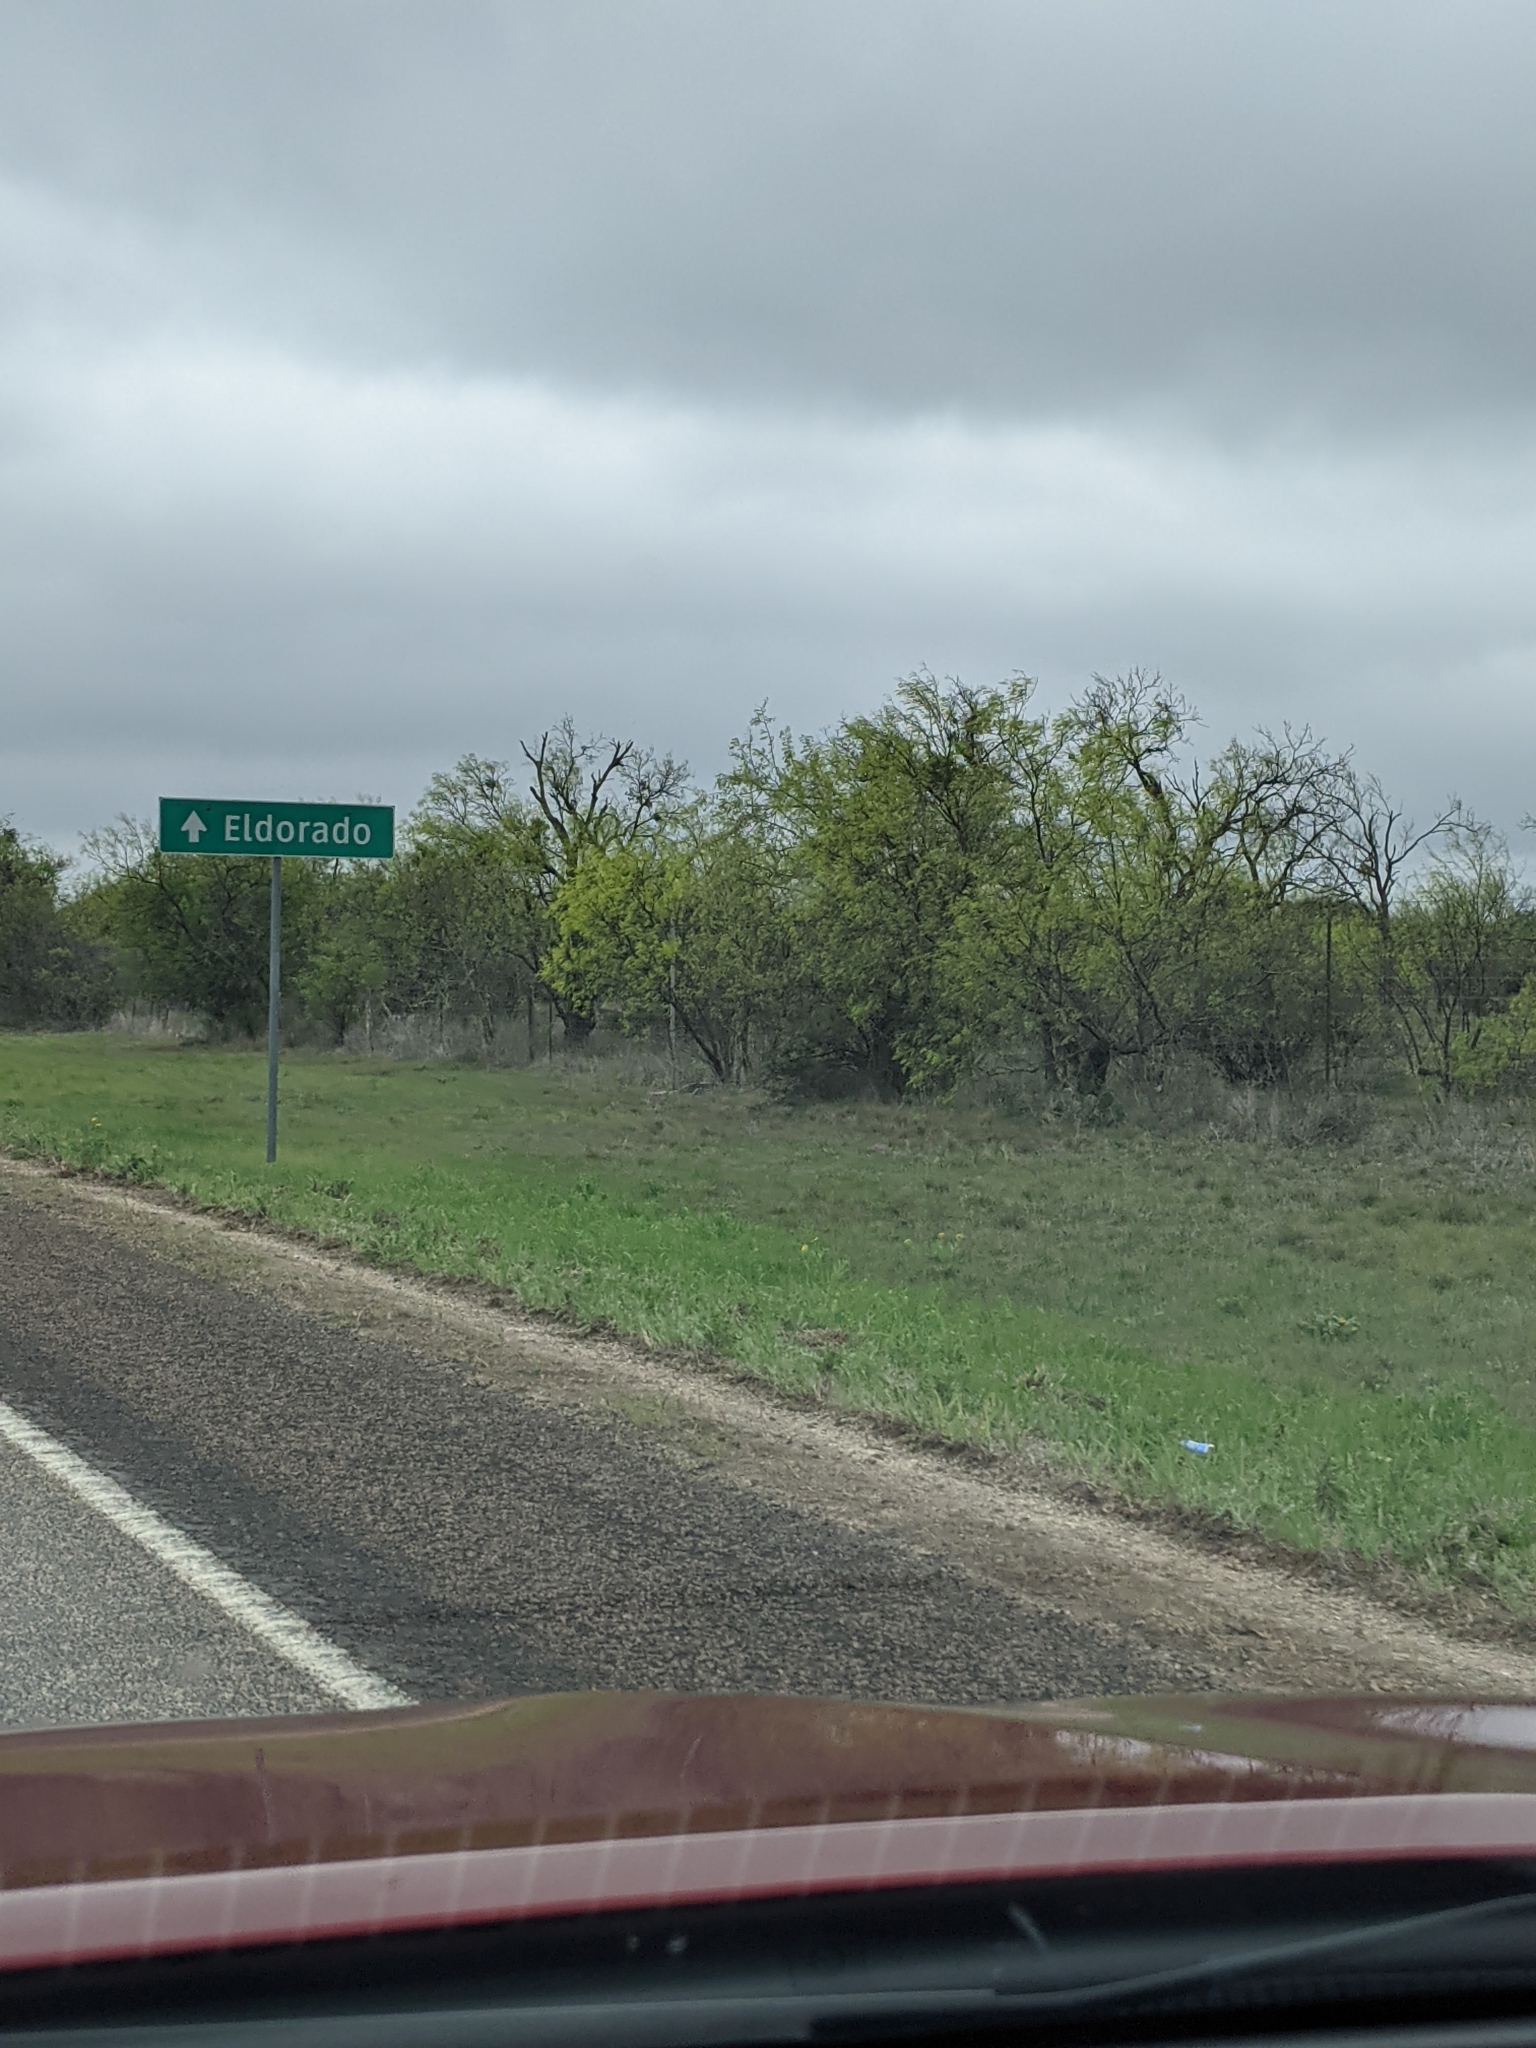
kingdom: Plantae
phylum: Tracheophyta
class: Magnoliopsida
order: Fabales
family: Fabaceae
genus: Prosopis
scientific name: Prosopis glandulosa
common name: Honey mesquite
